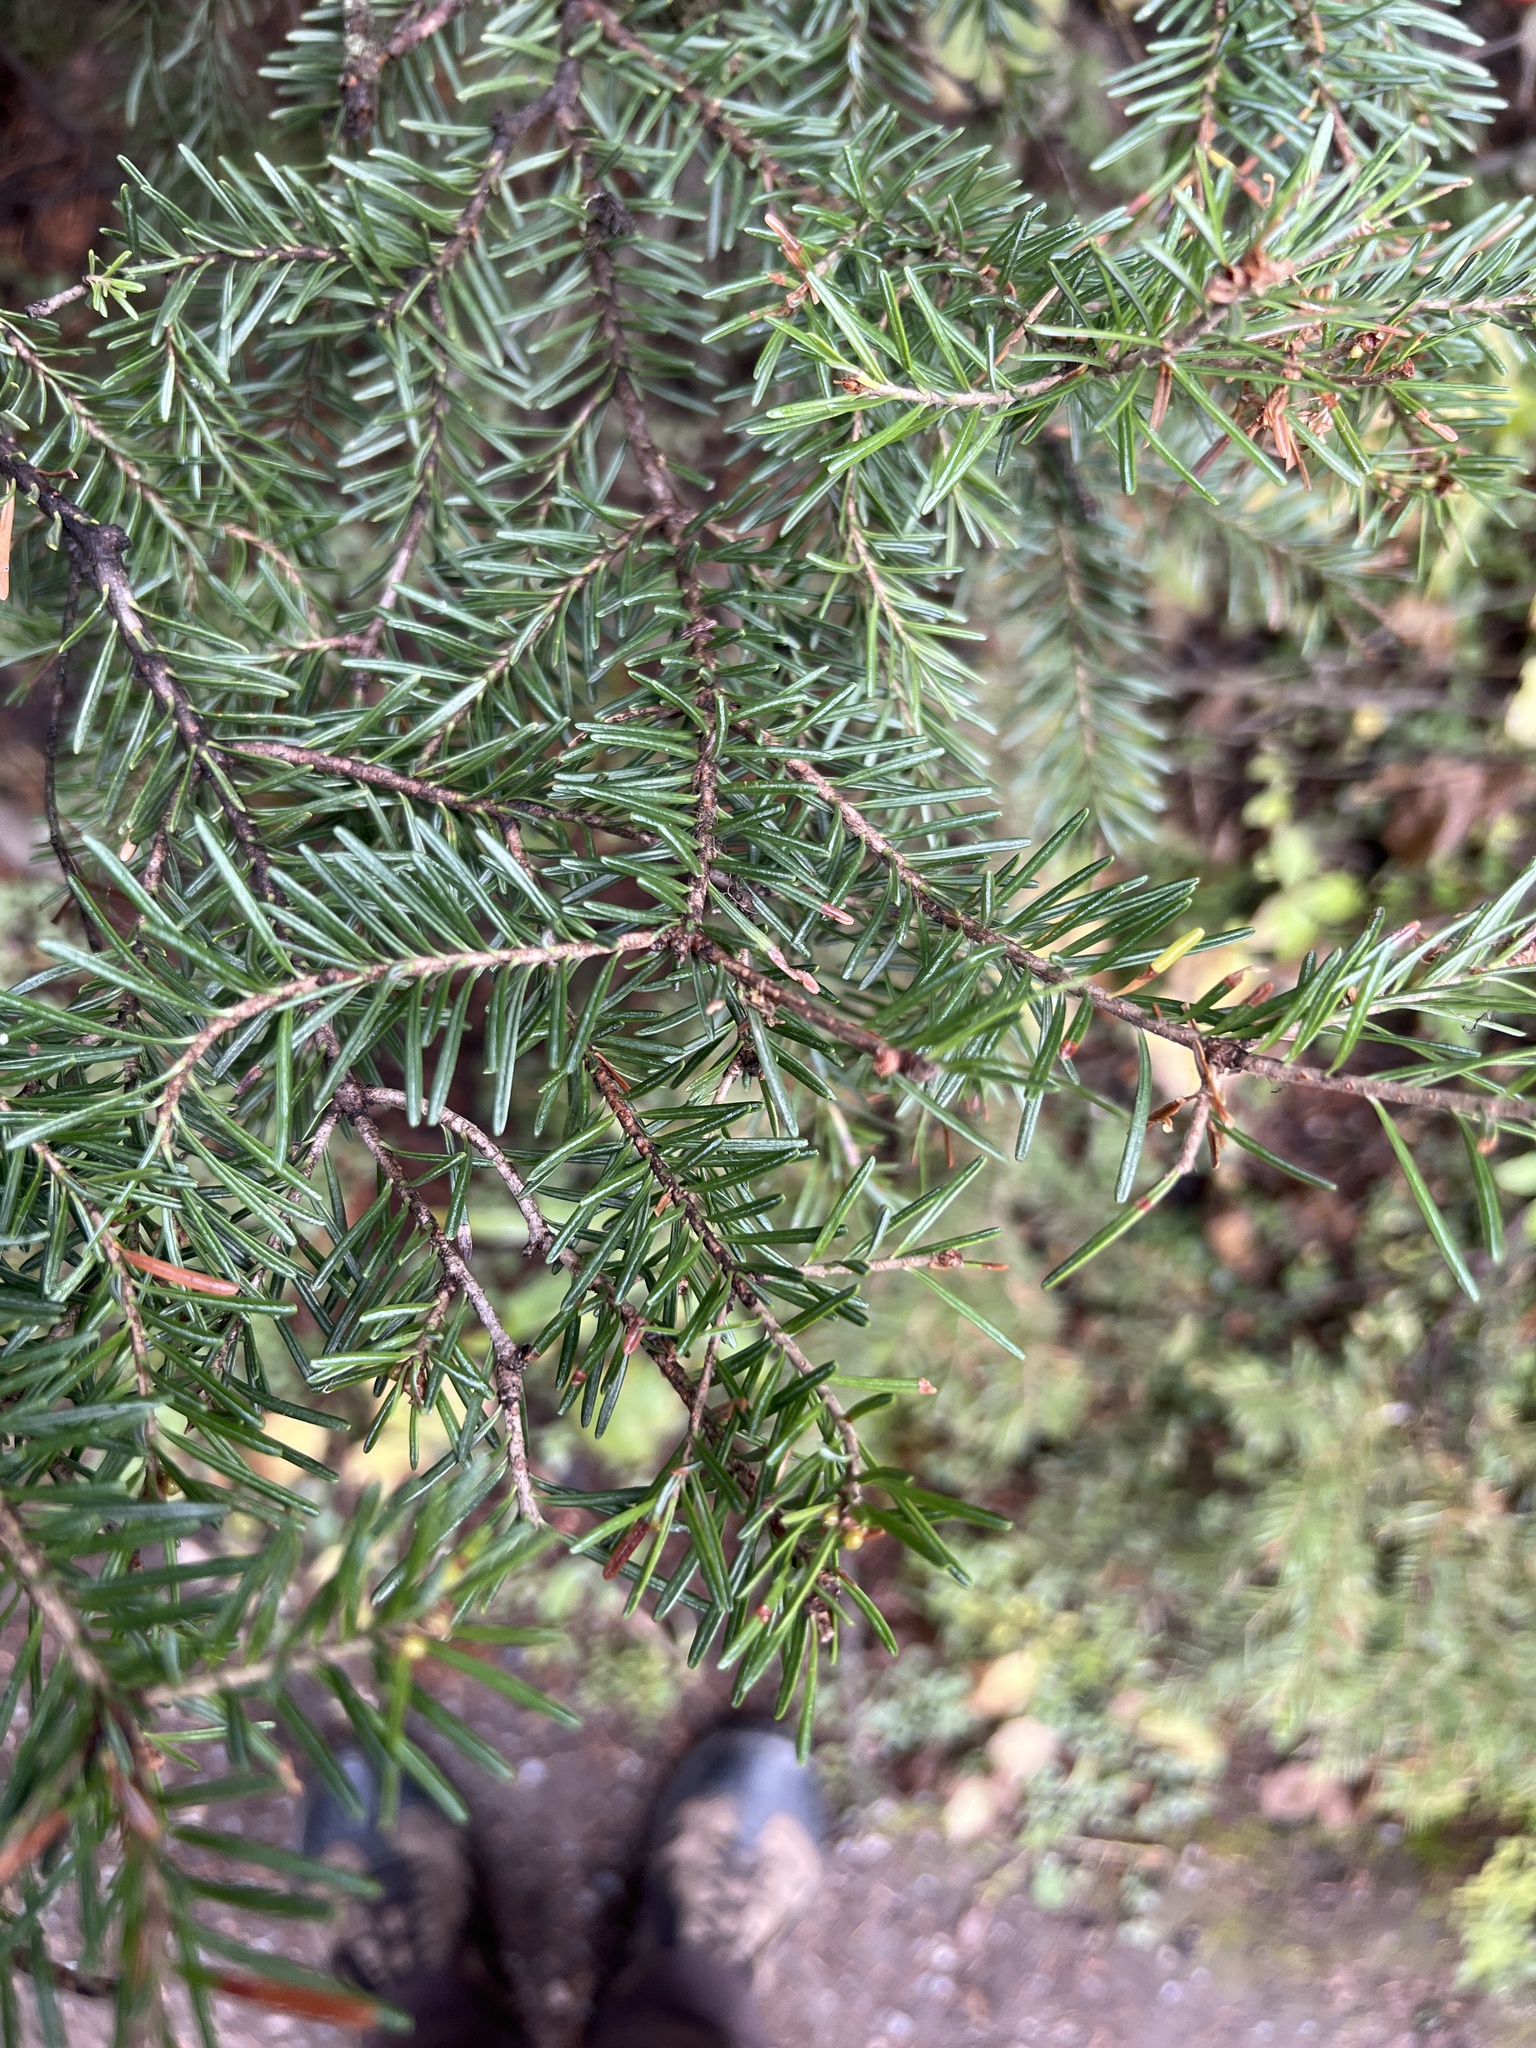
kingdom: Plantae
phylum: Tracheophyta
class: Pinopsida
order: Pinales
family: Pinaceae
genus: Abies
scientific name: Abies lasiocarpa
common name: Subalpine fir
